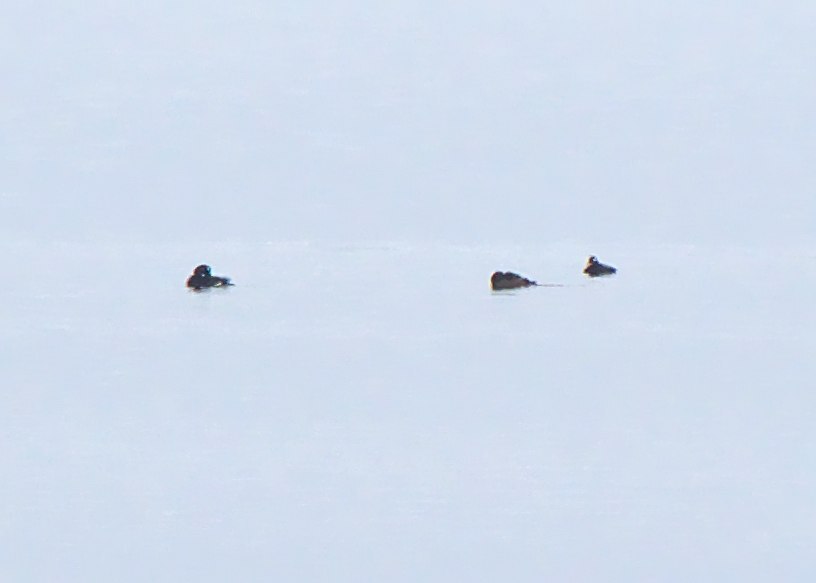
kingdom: Animalia
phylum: Chordata
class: Aves
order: Anseriformes
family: Anatidae
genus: Melanitta
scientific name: Melanitta deglandi
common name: White-winged scoter
